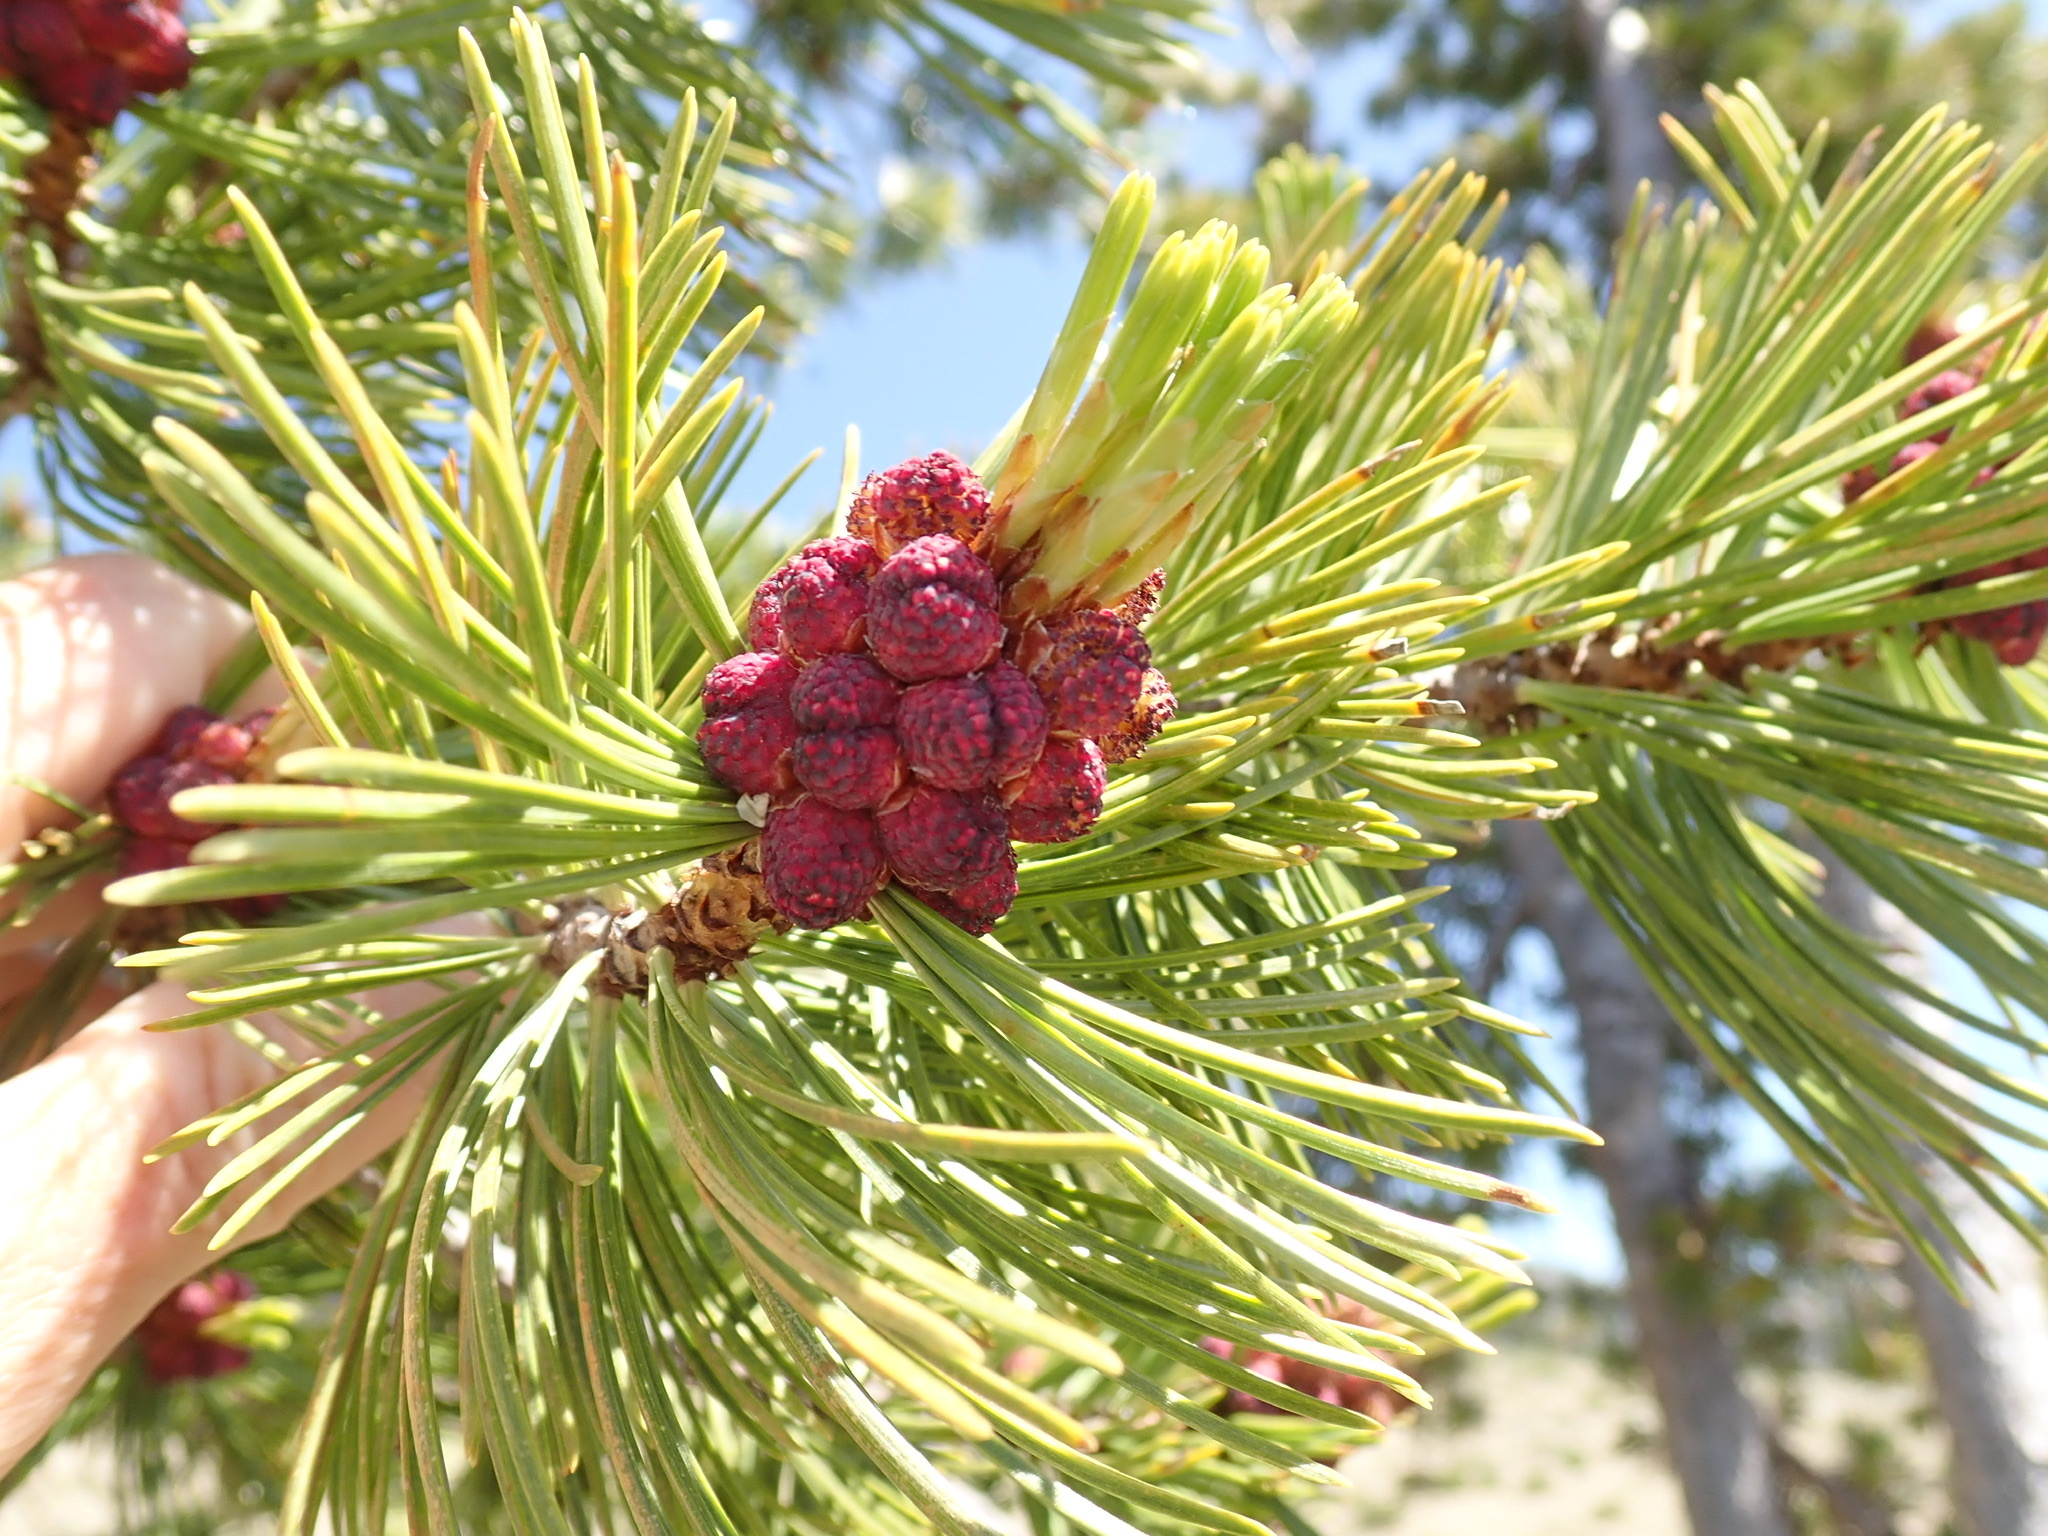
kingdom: Plantae
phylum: Tracheophyta
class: Pinopsida
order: Pinales
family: Pinaceae
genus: Pinus
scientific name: Pinus albicaulis
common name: Whitebark pine
